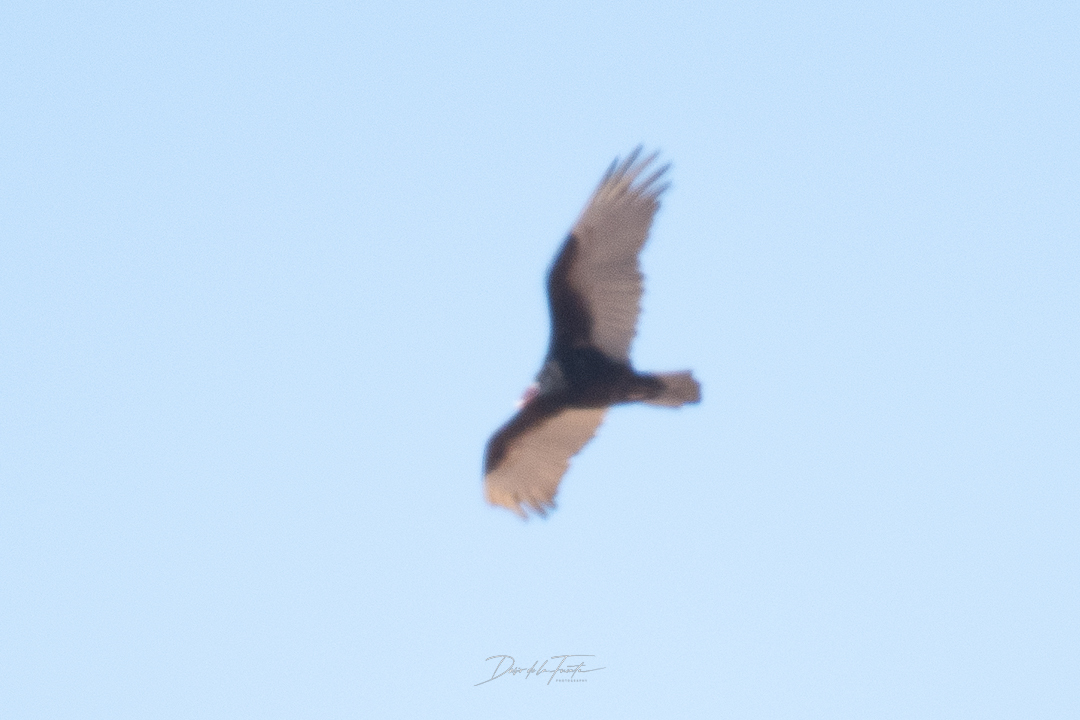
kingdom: Animalia
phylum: Chordata
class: Aves
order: Accipitriformes
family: Cathartidae
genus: Cathartes
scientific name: Cathartes aura
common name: Turkey vulture
